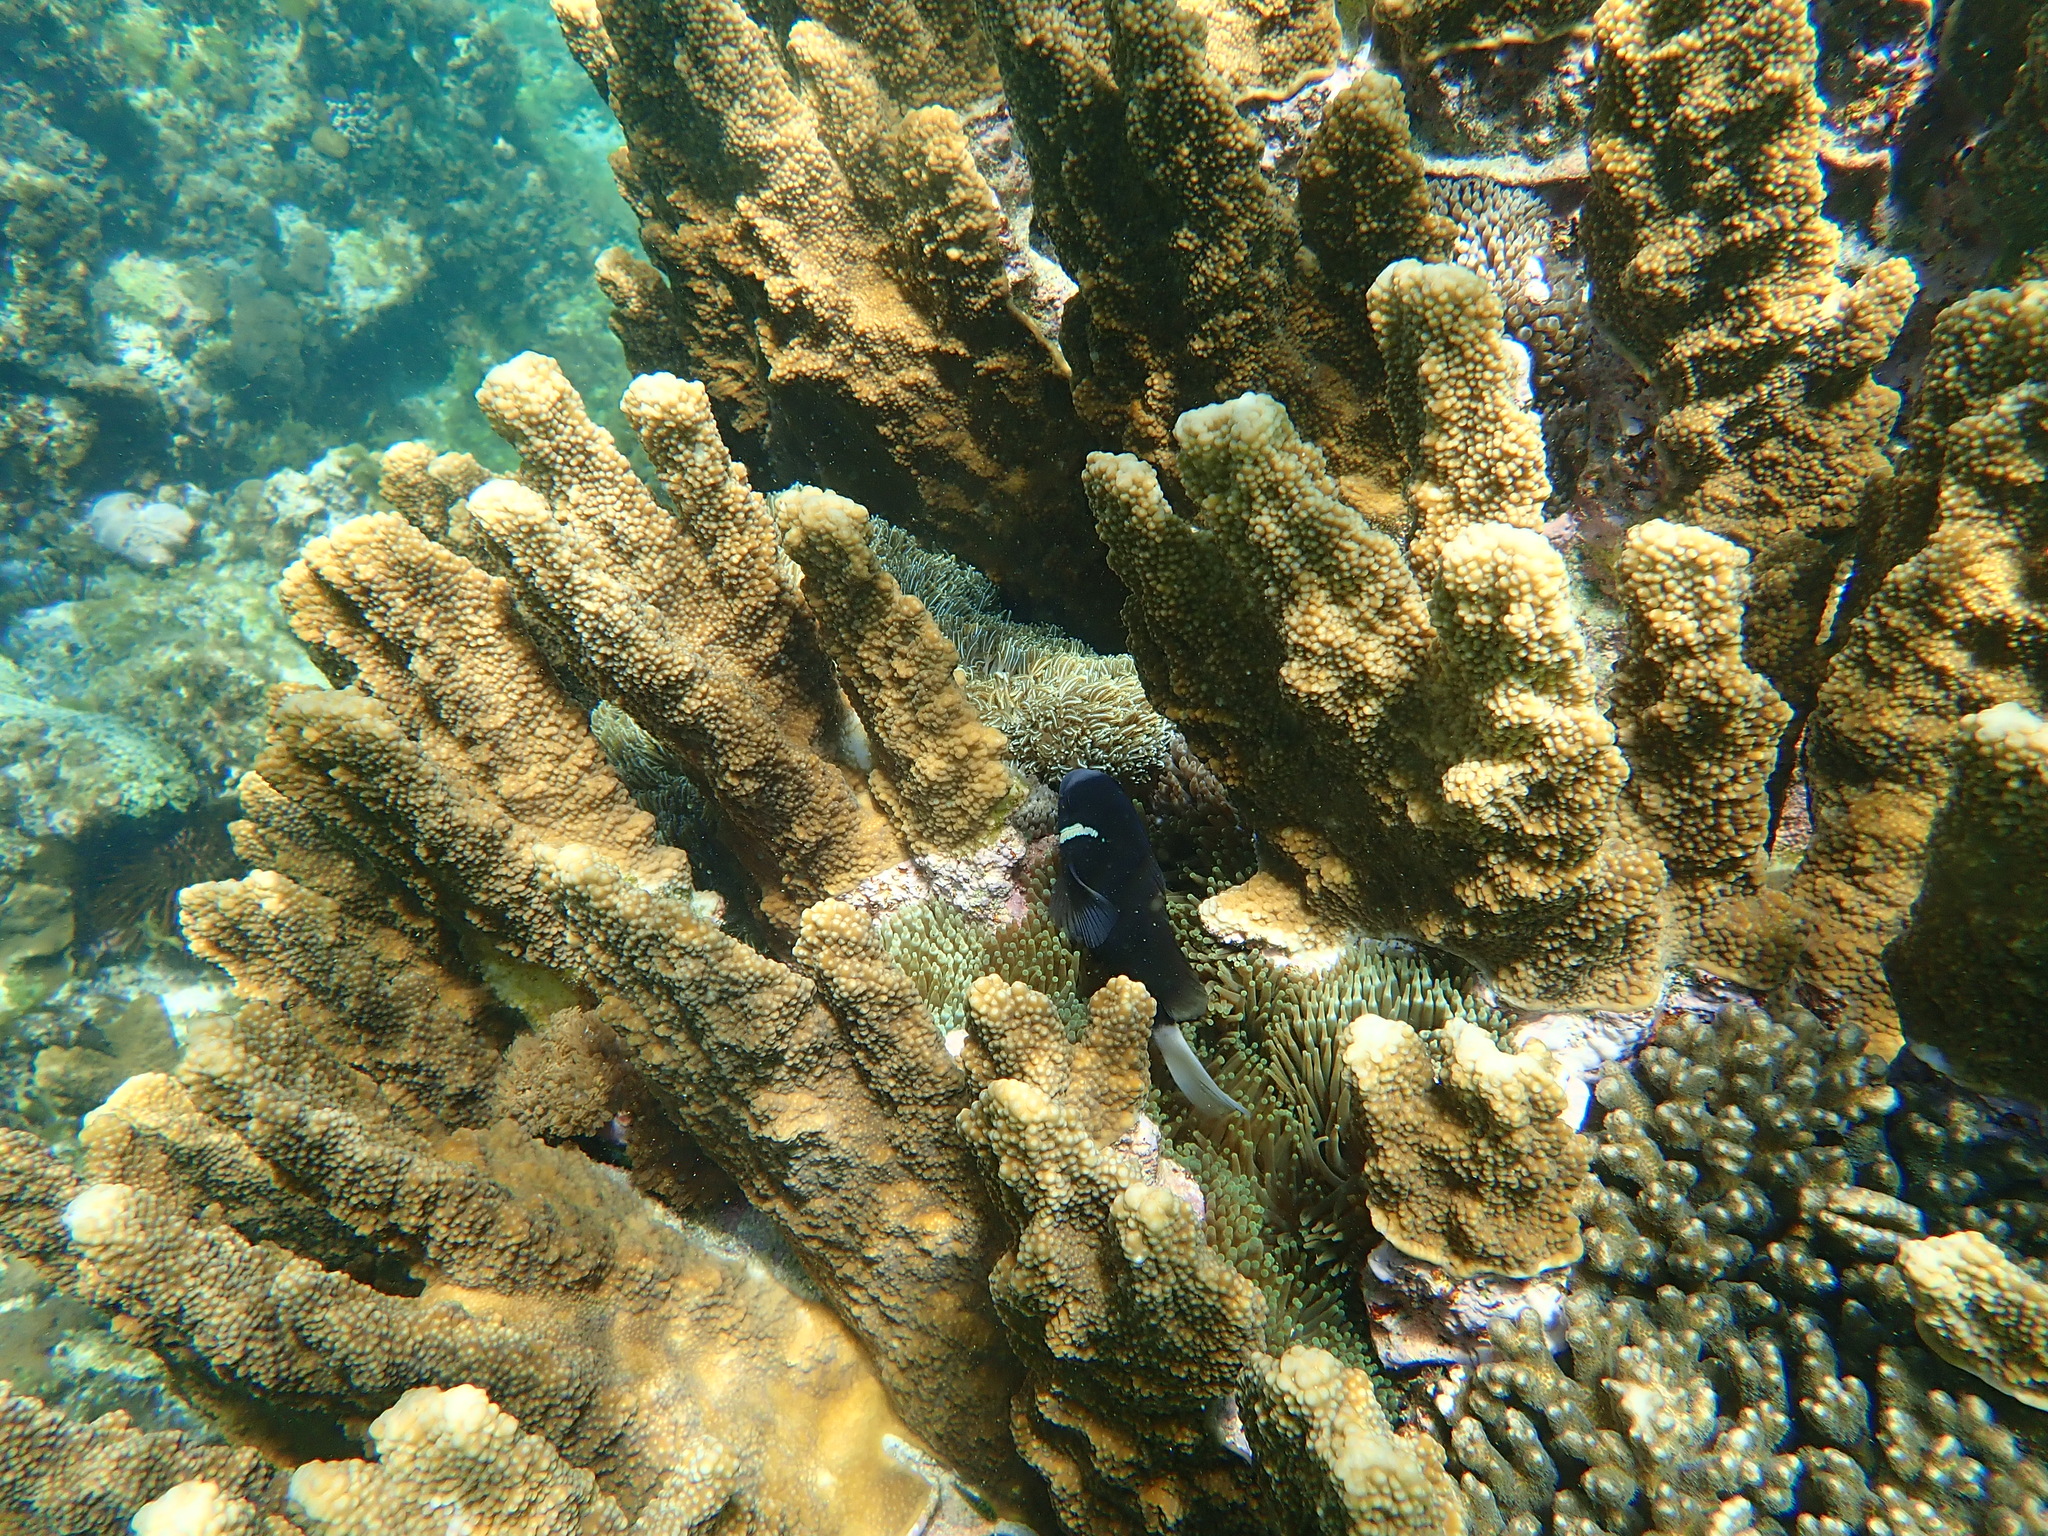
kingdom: Animalia
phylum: Chordata
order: Perciformes
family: Pomacentridae
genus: Amphiprion
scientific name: Amphiprion mccullochi
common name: Mcculloch's anemonefish
